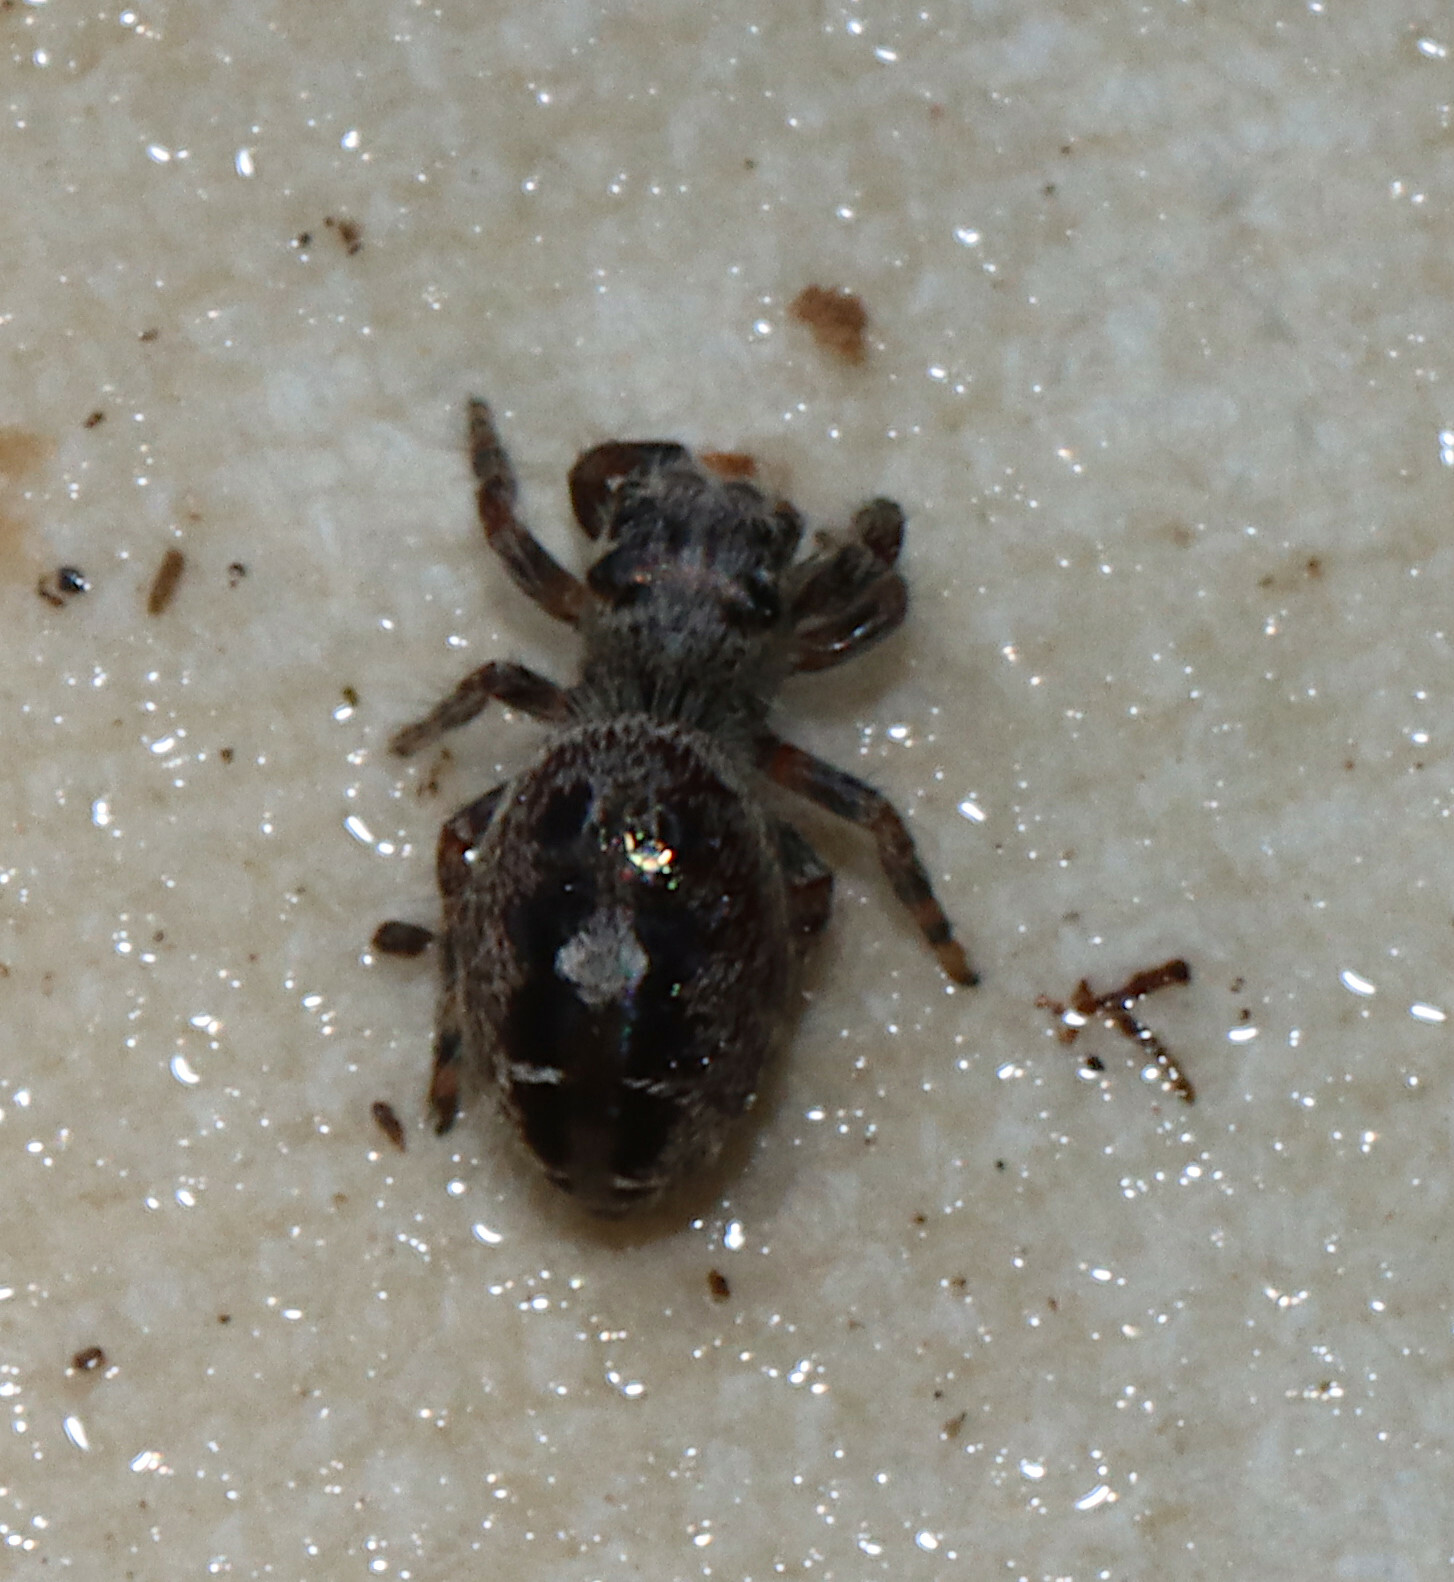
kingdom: Animalia
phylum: Arthropoda
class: Arachnida
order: Araneae
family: Salticidae
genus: Phidippus
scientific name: Phidippus putnami
